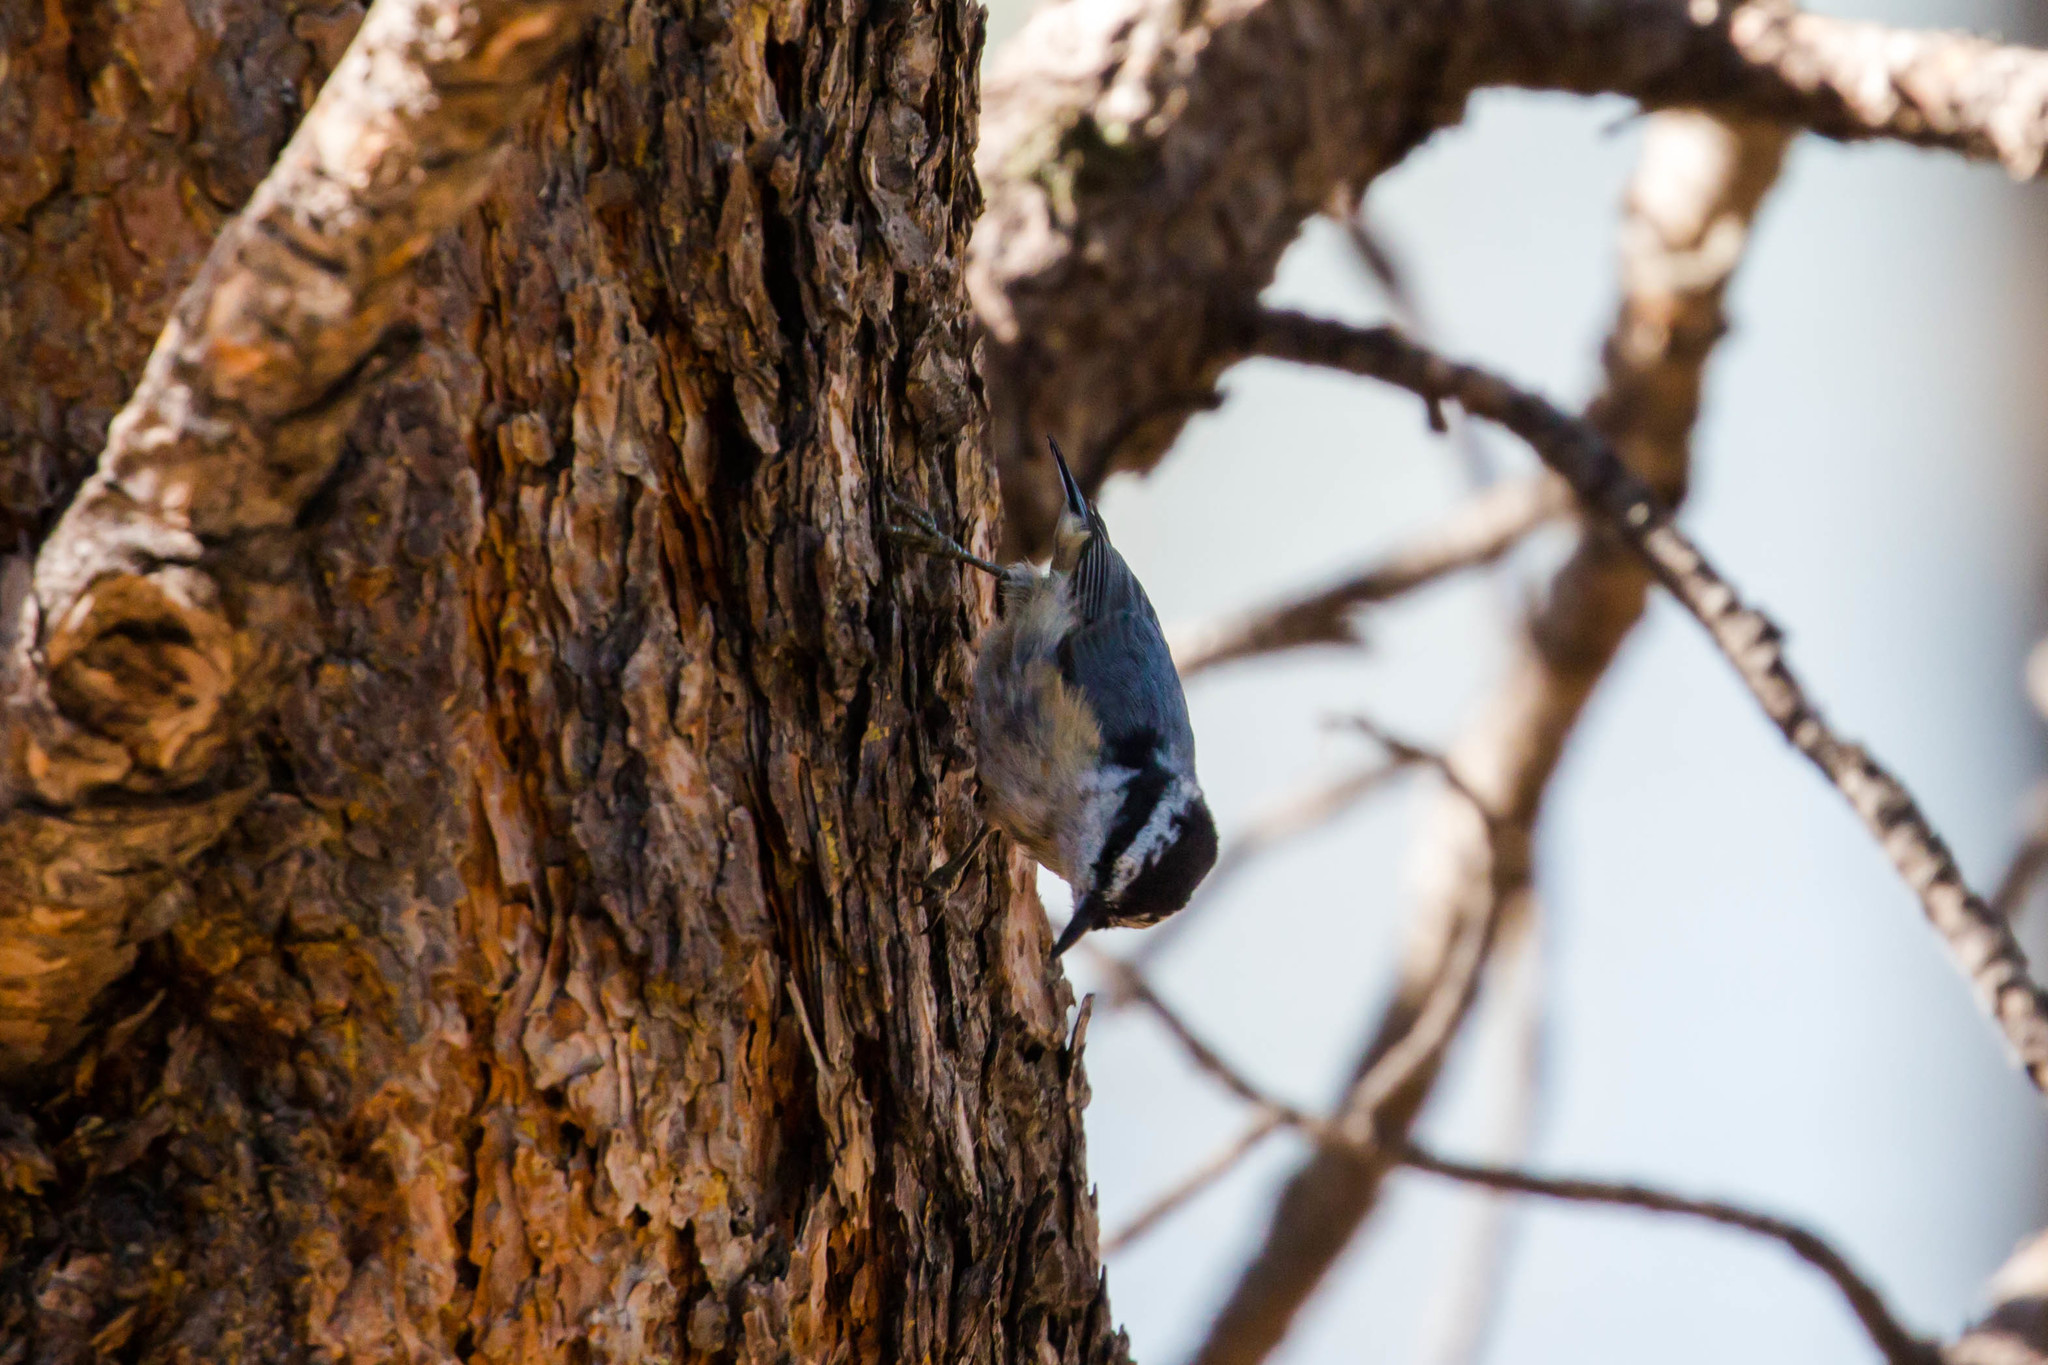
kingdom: Animalia
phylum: Chordata
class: Aves
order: Passeriformes
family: Sittidae
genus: Sitta
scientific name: Sitta canadensis
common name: Red-breasted nuthatch
